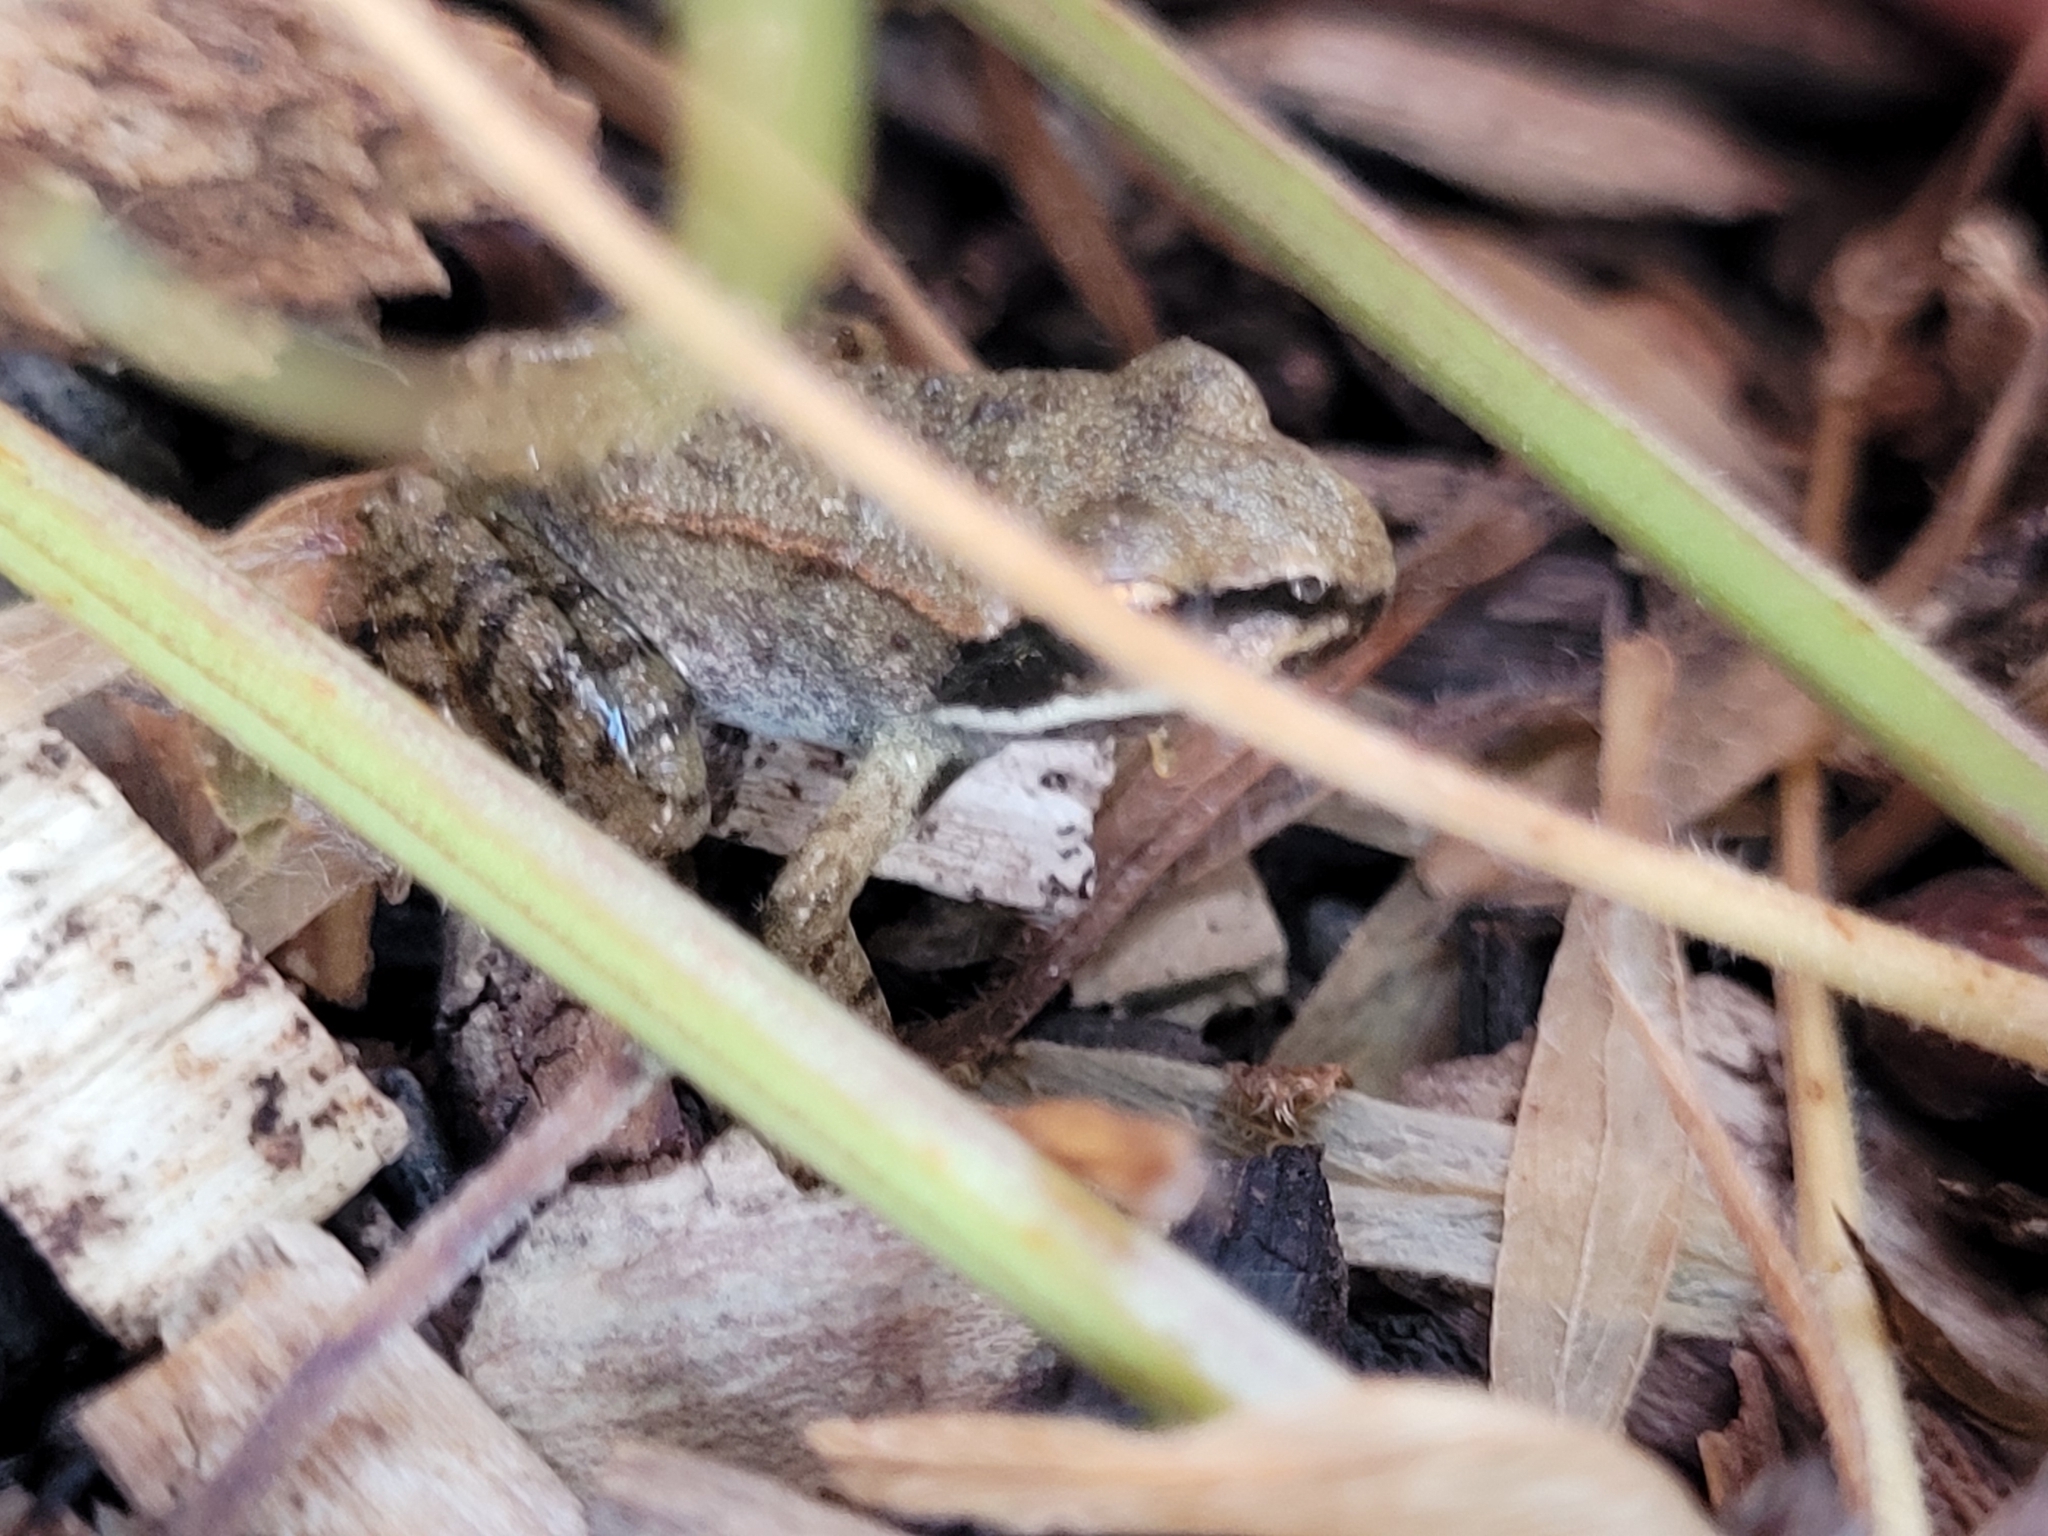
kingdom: Animalia
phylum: Chordata
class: Amphibia
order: Anura
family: Ranidae
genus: Lithobates
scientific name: Lithobates sylvaticus
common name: Wood frog
